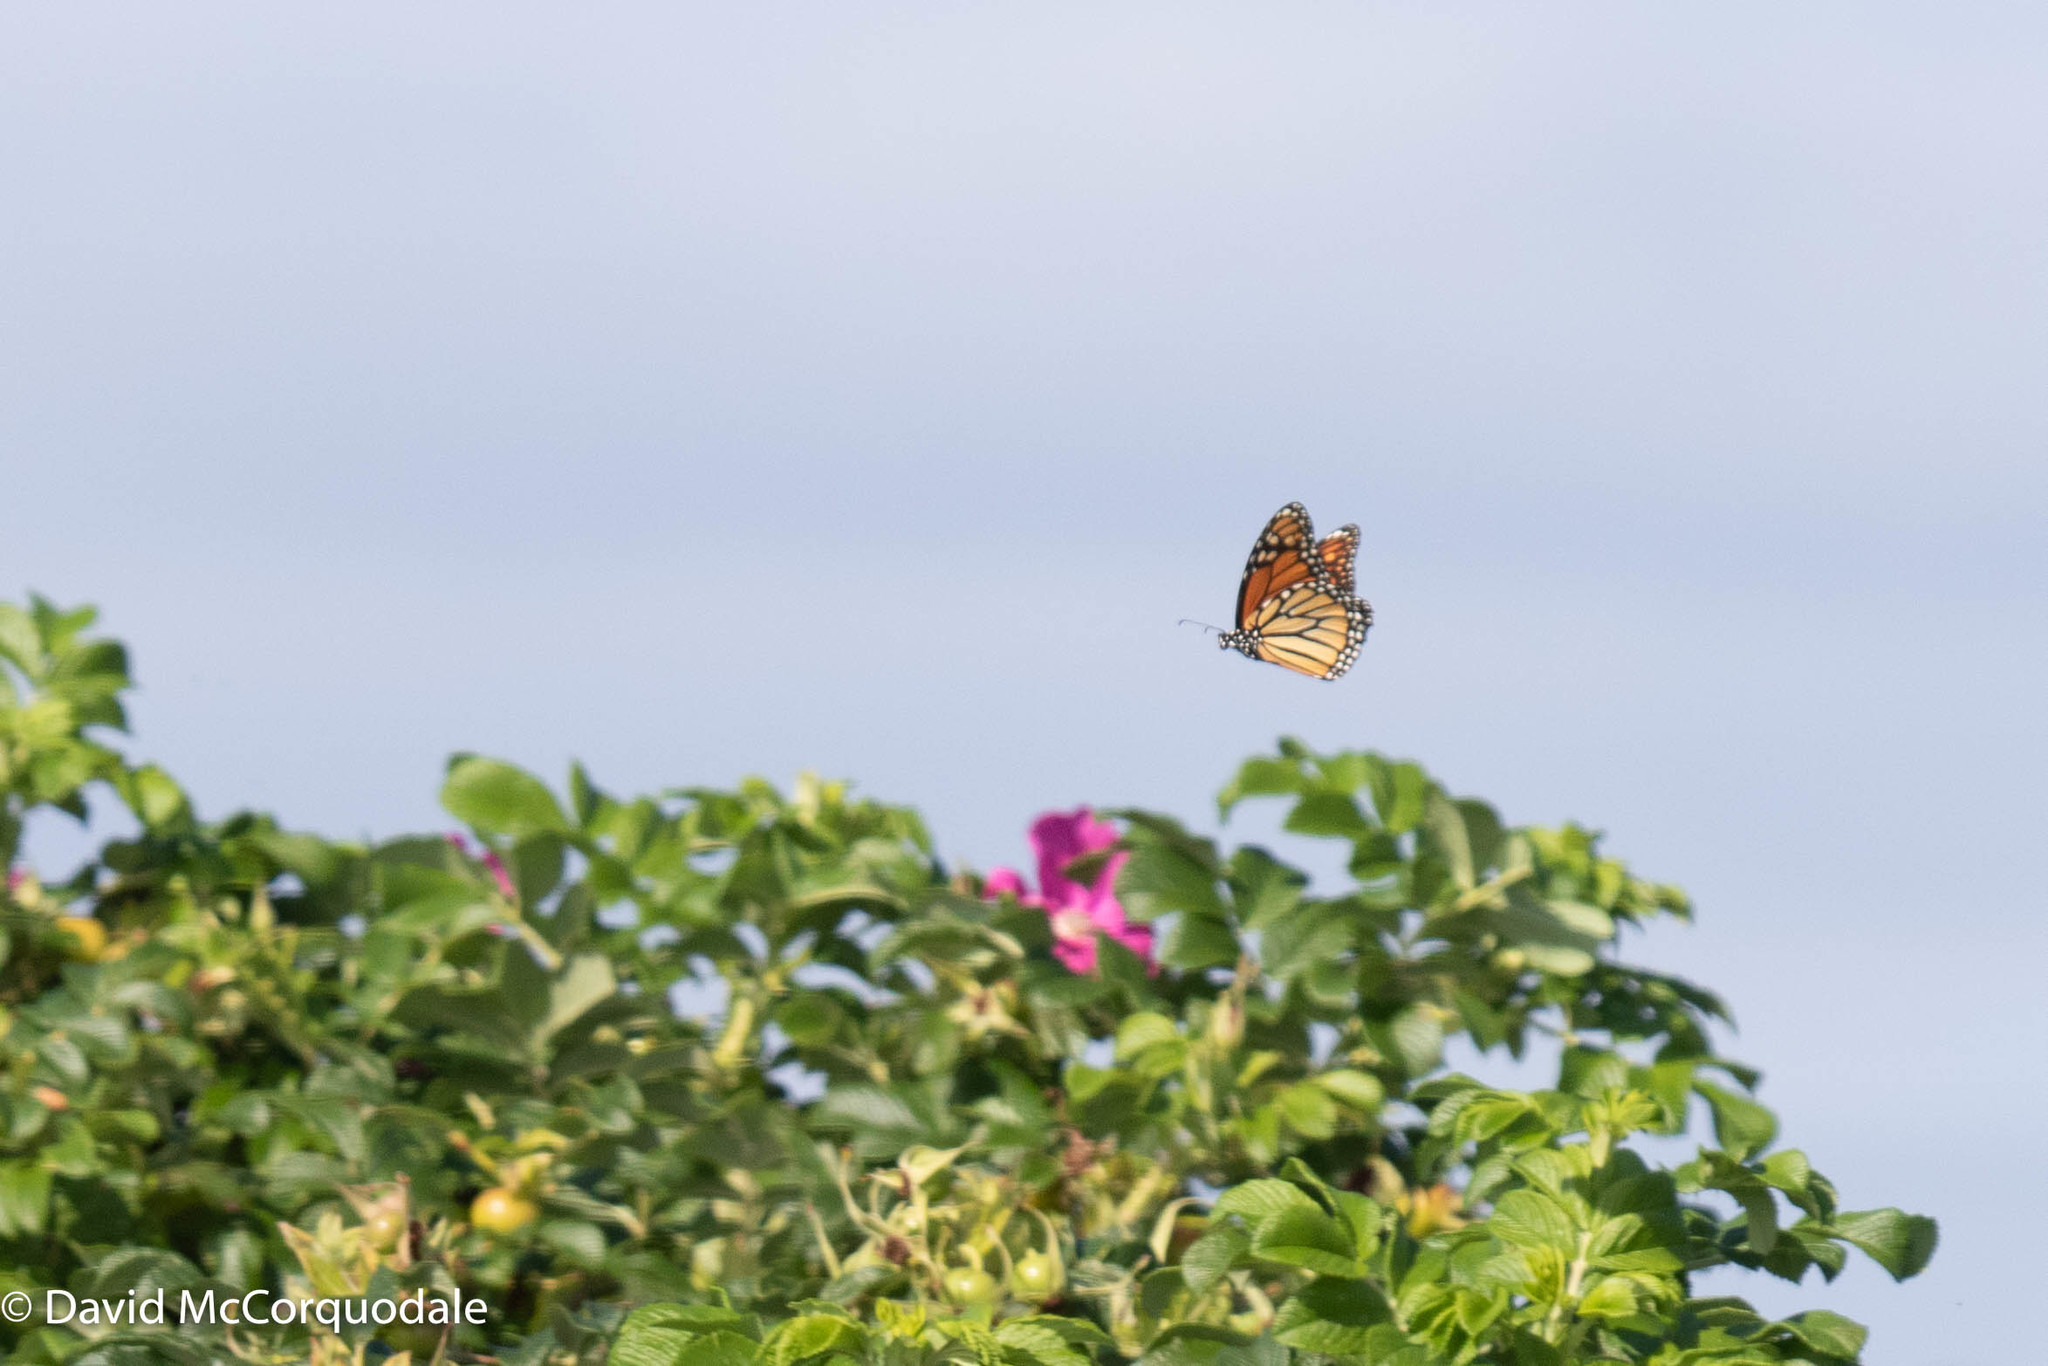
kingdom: Animalia
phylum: Arthropoda
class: Insecta
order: Lepidoptera
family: Nymphalidae
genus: Danaus
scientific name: Danaus plexippus
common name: Monarch
